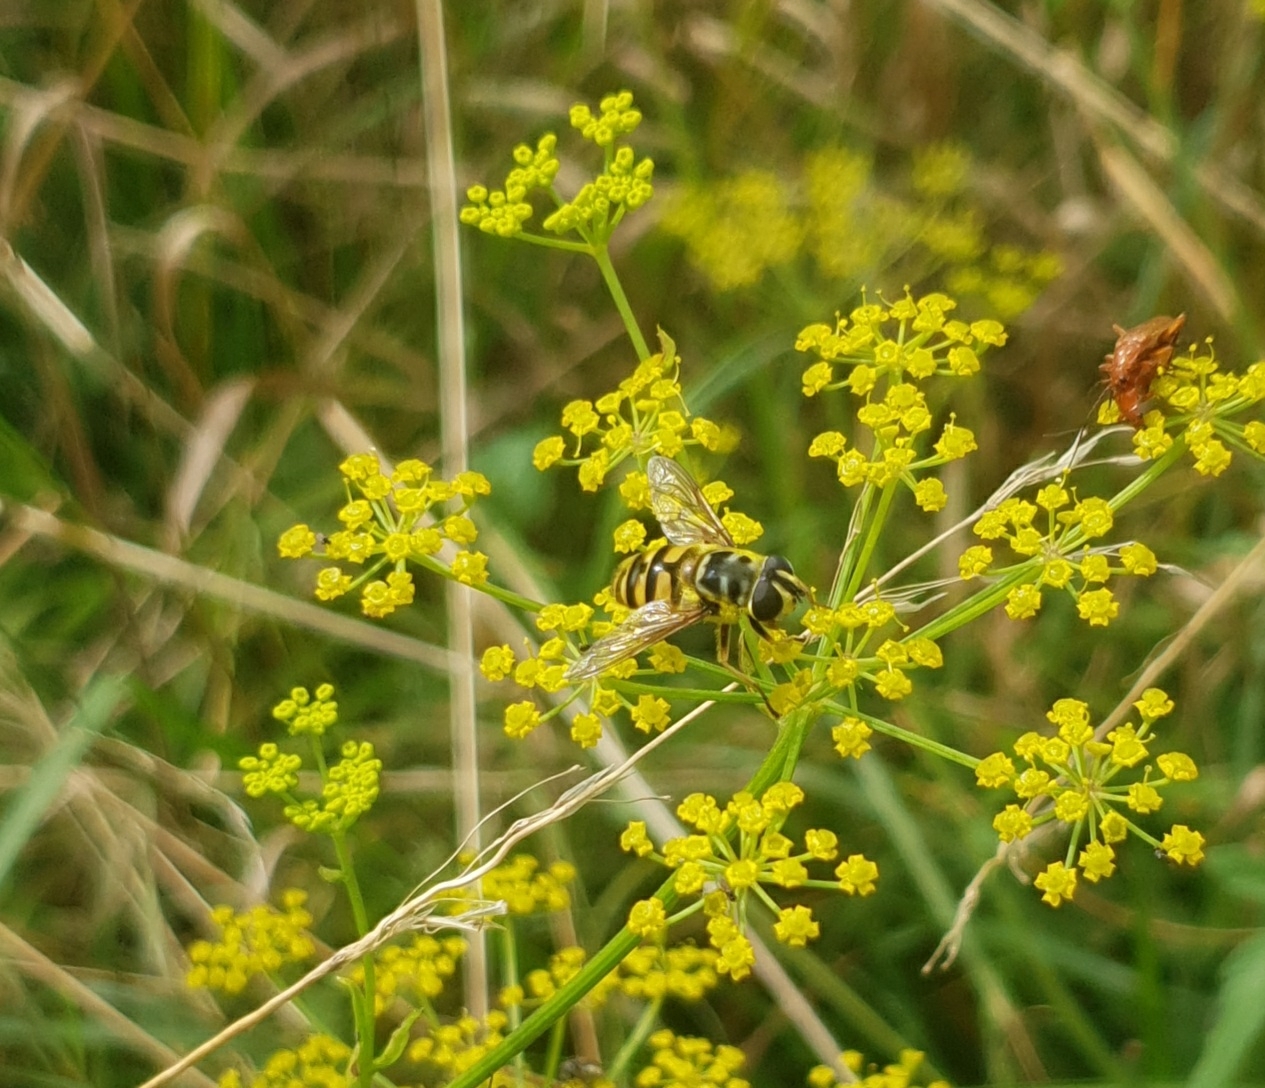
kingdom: Animalia
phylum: Arthropoda
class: Insecta
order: Diptera
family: Syrphidae
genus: Myathropa
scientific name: Myathropa florea
